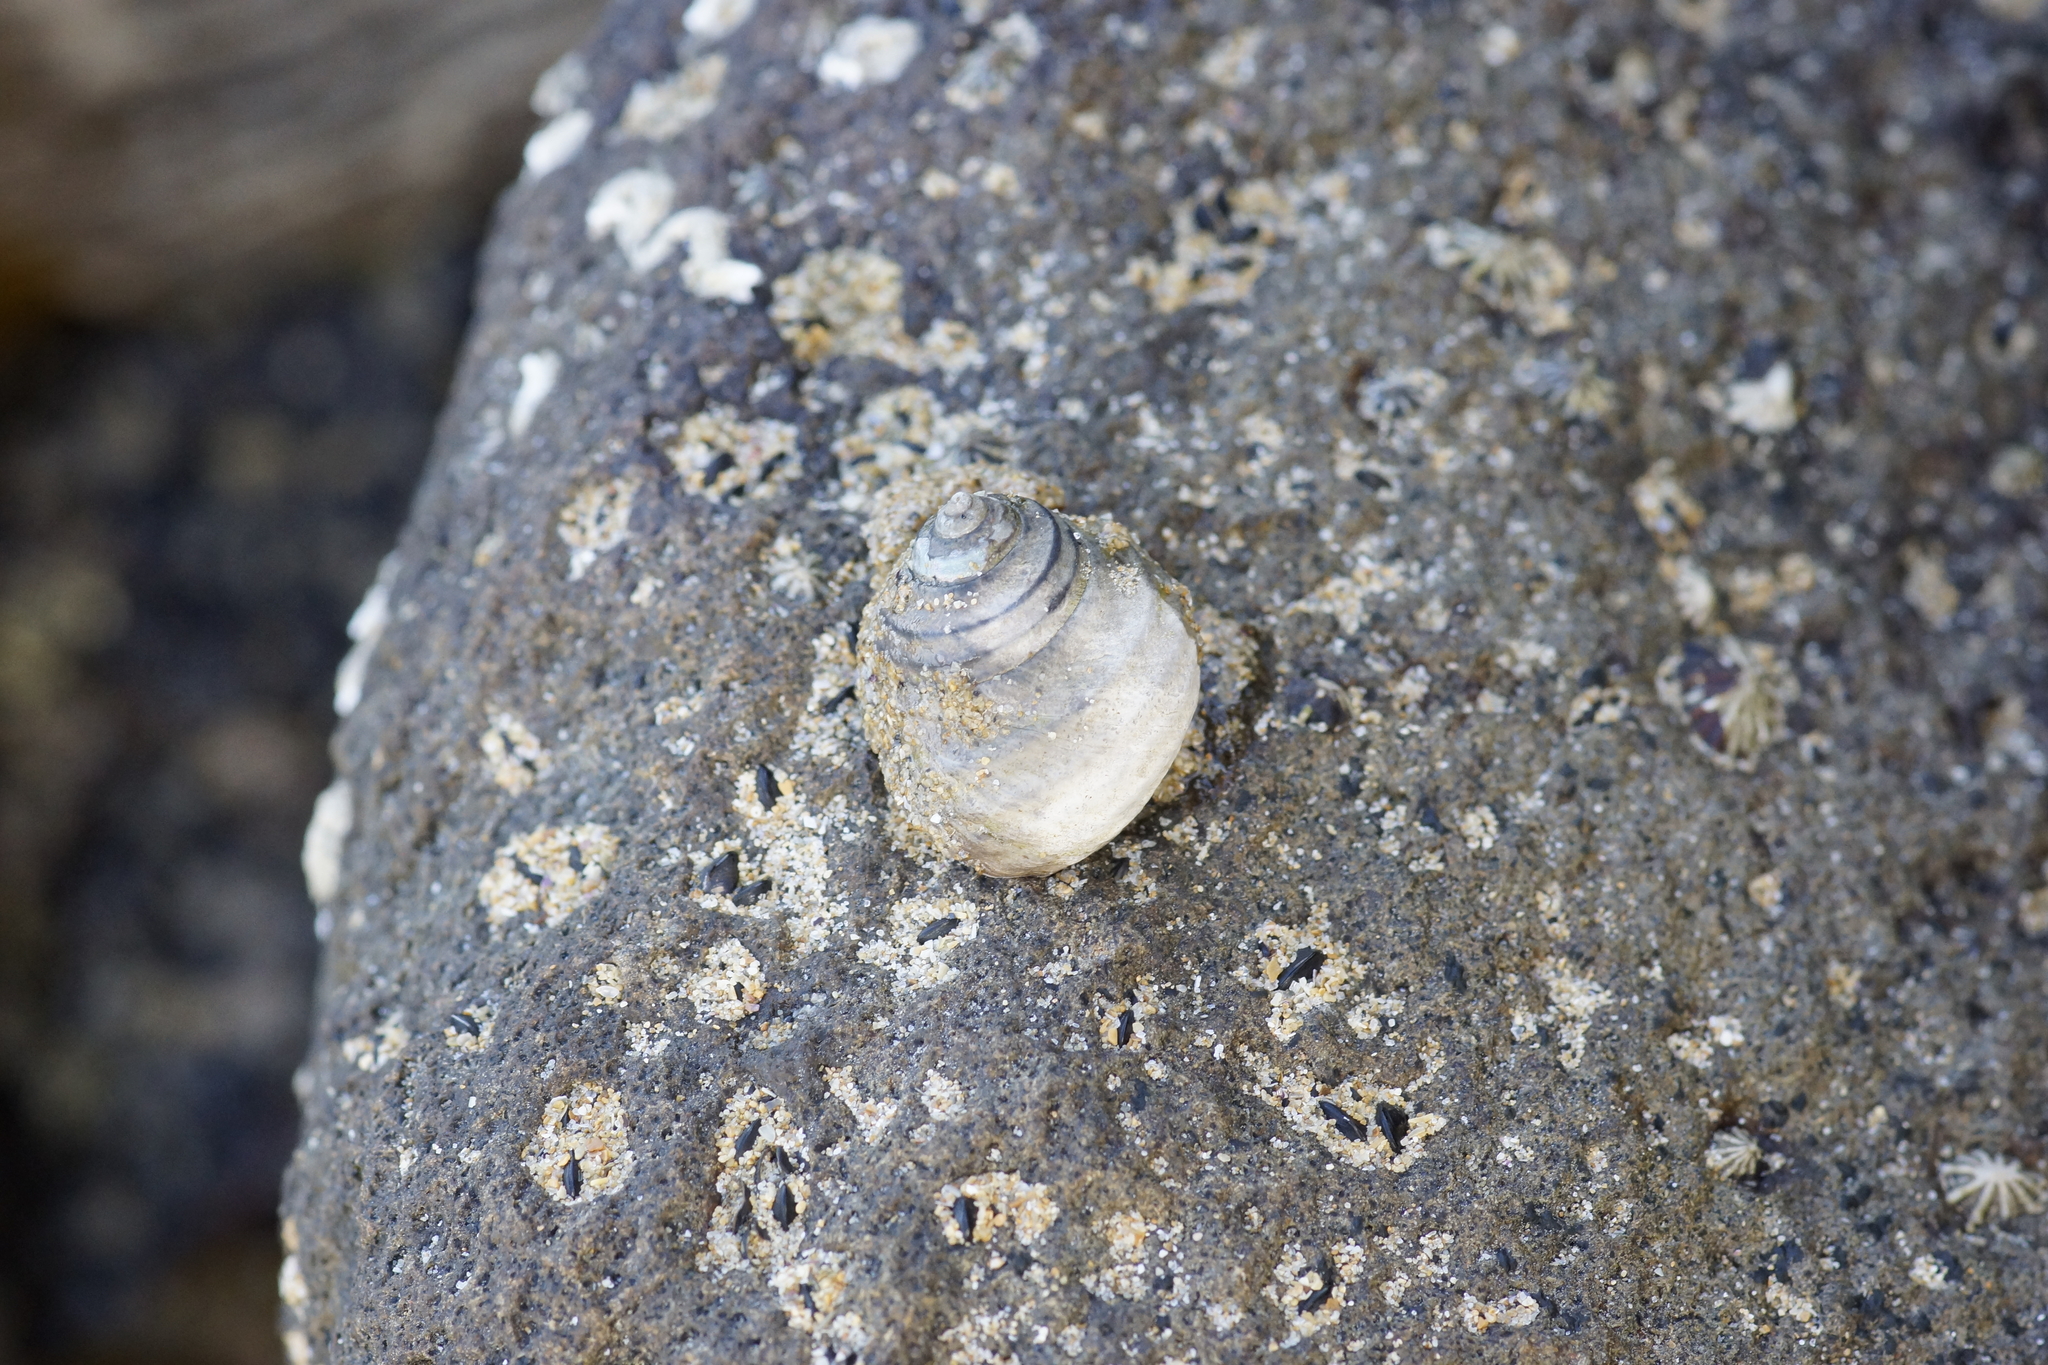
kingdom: Animalia
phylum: Mollusca
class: Gastropoda
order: Trochida
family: Trochidae
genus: Austrocochlea
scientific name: Austrocochlea constricta
